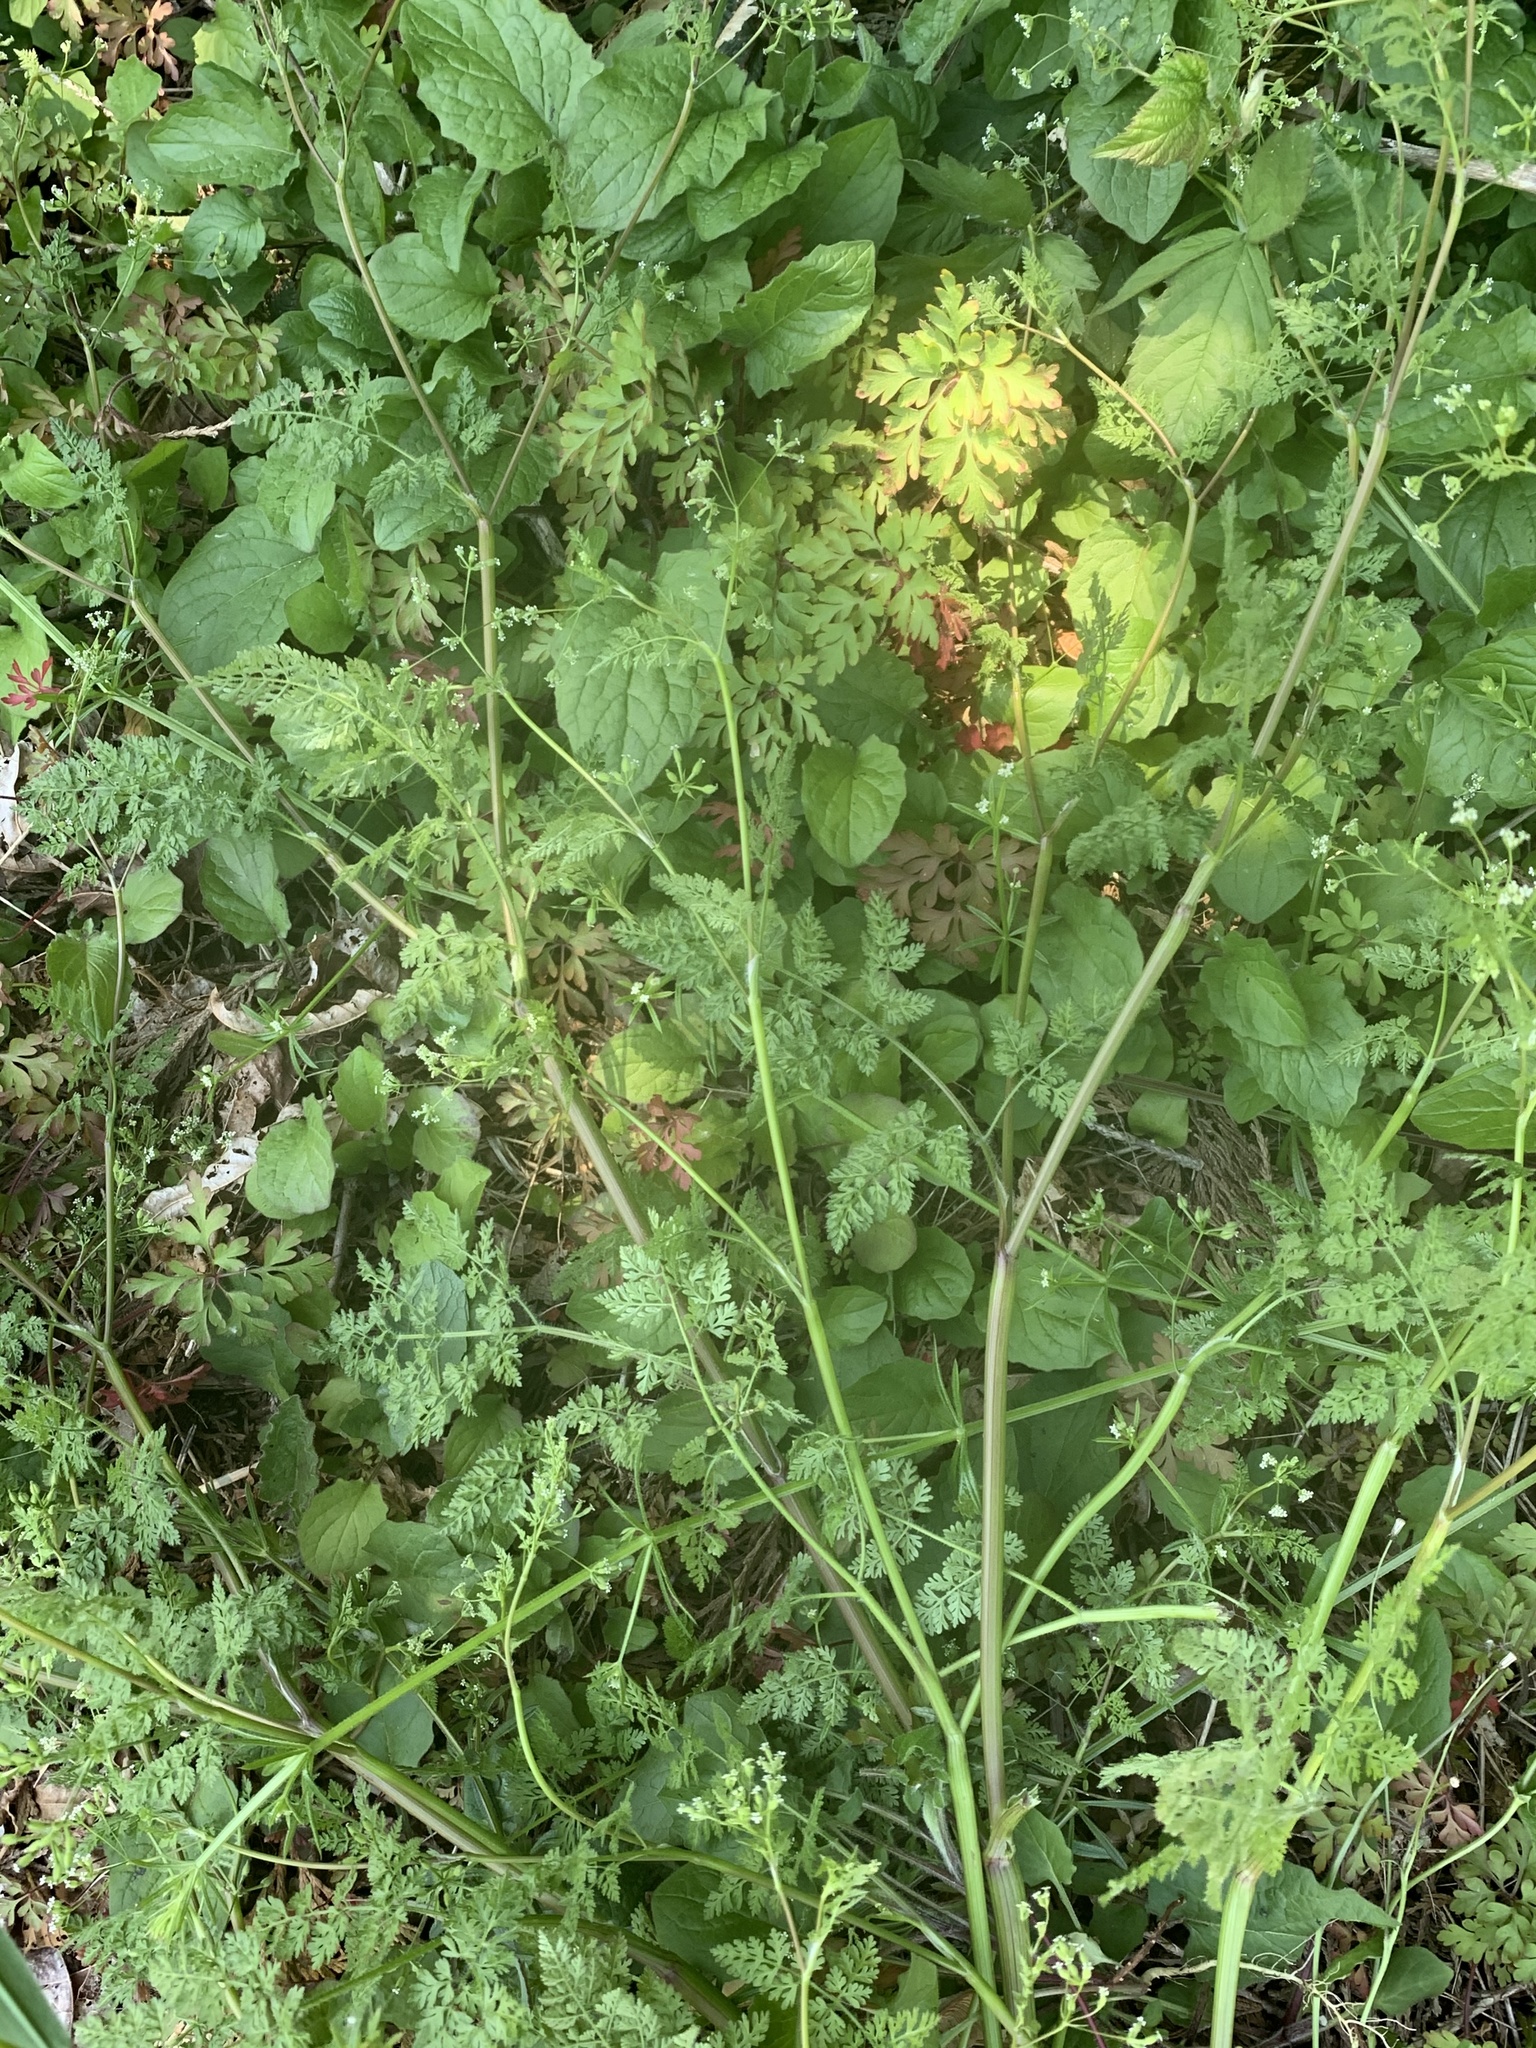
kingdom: Plantae
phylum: Tracheophyta
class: Magnoliopsida
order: Apiales
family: Apiaceae
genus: Anthriscus
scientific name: Anthriscus caucalis
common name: Bur chervil
